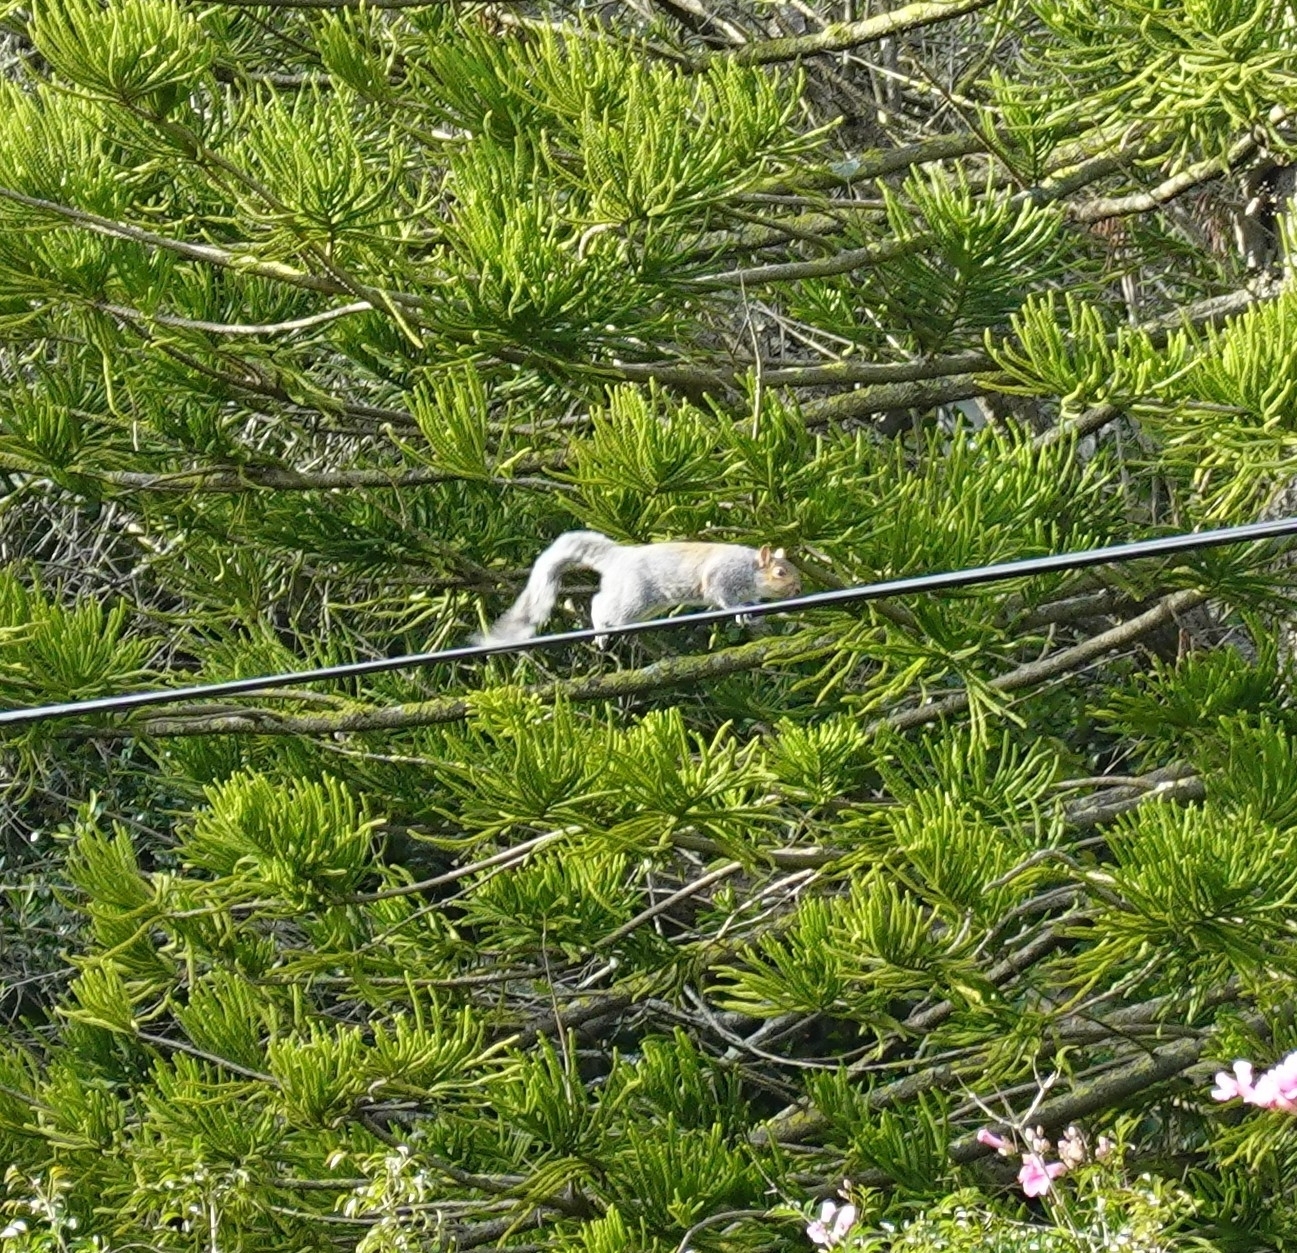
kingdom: Animalia
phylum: Chordata
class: Mammalia
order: Rodentia
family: Sciuridae
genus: Sciurus
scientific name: Sciurus carolinensis
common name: Eastern gray squirrel
